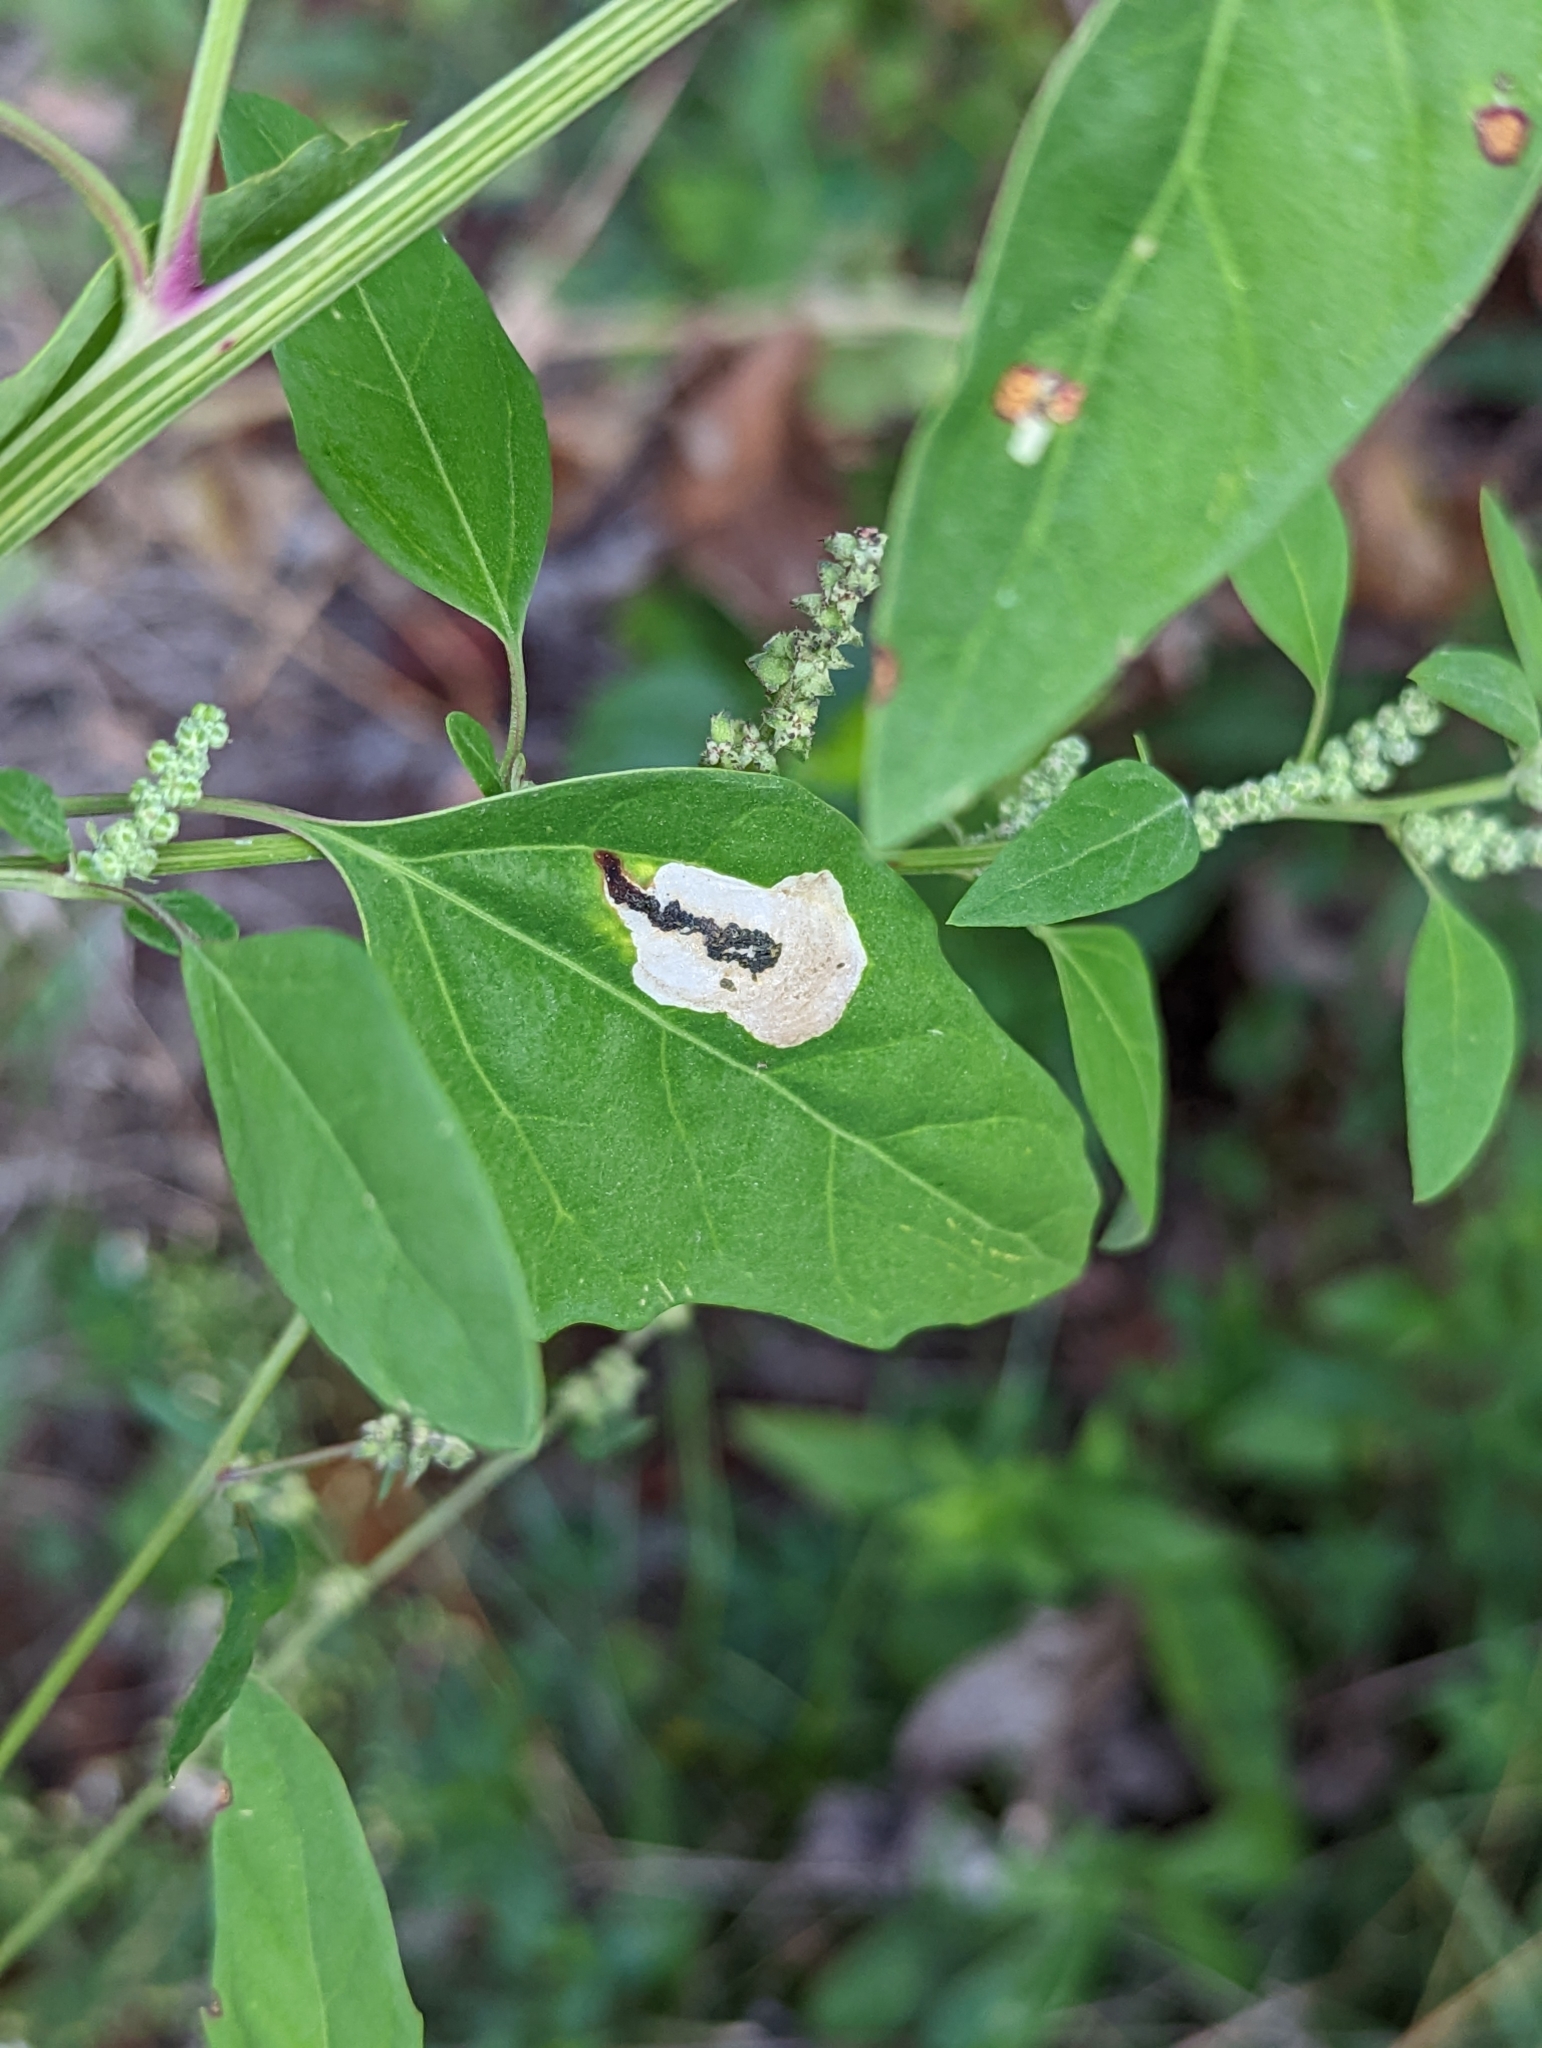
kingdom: Animalia
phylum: Arthropoda
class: Insecta
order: Lepidoptera
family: Gelechiidae
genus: Chrysoesthia
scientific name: Chrysoesthia sexguttella
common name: Moth
